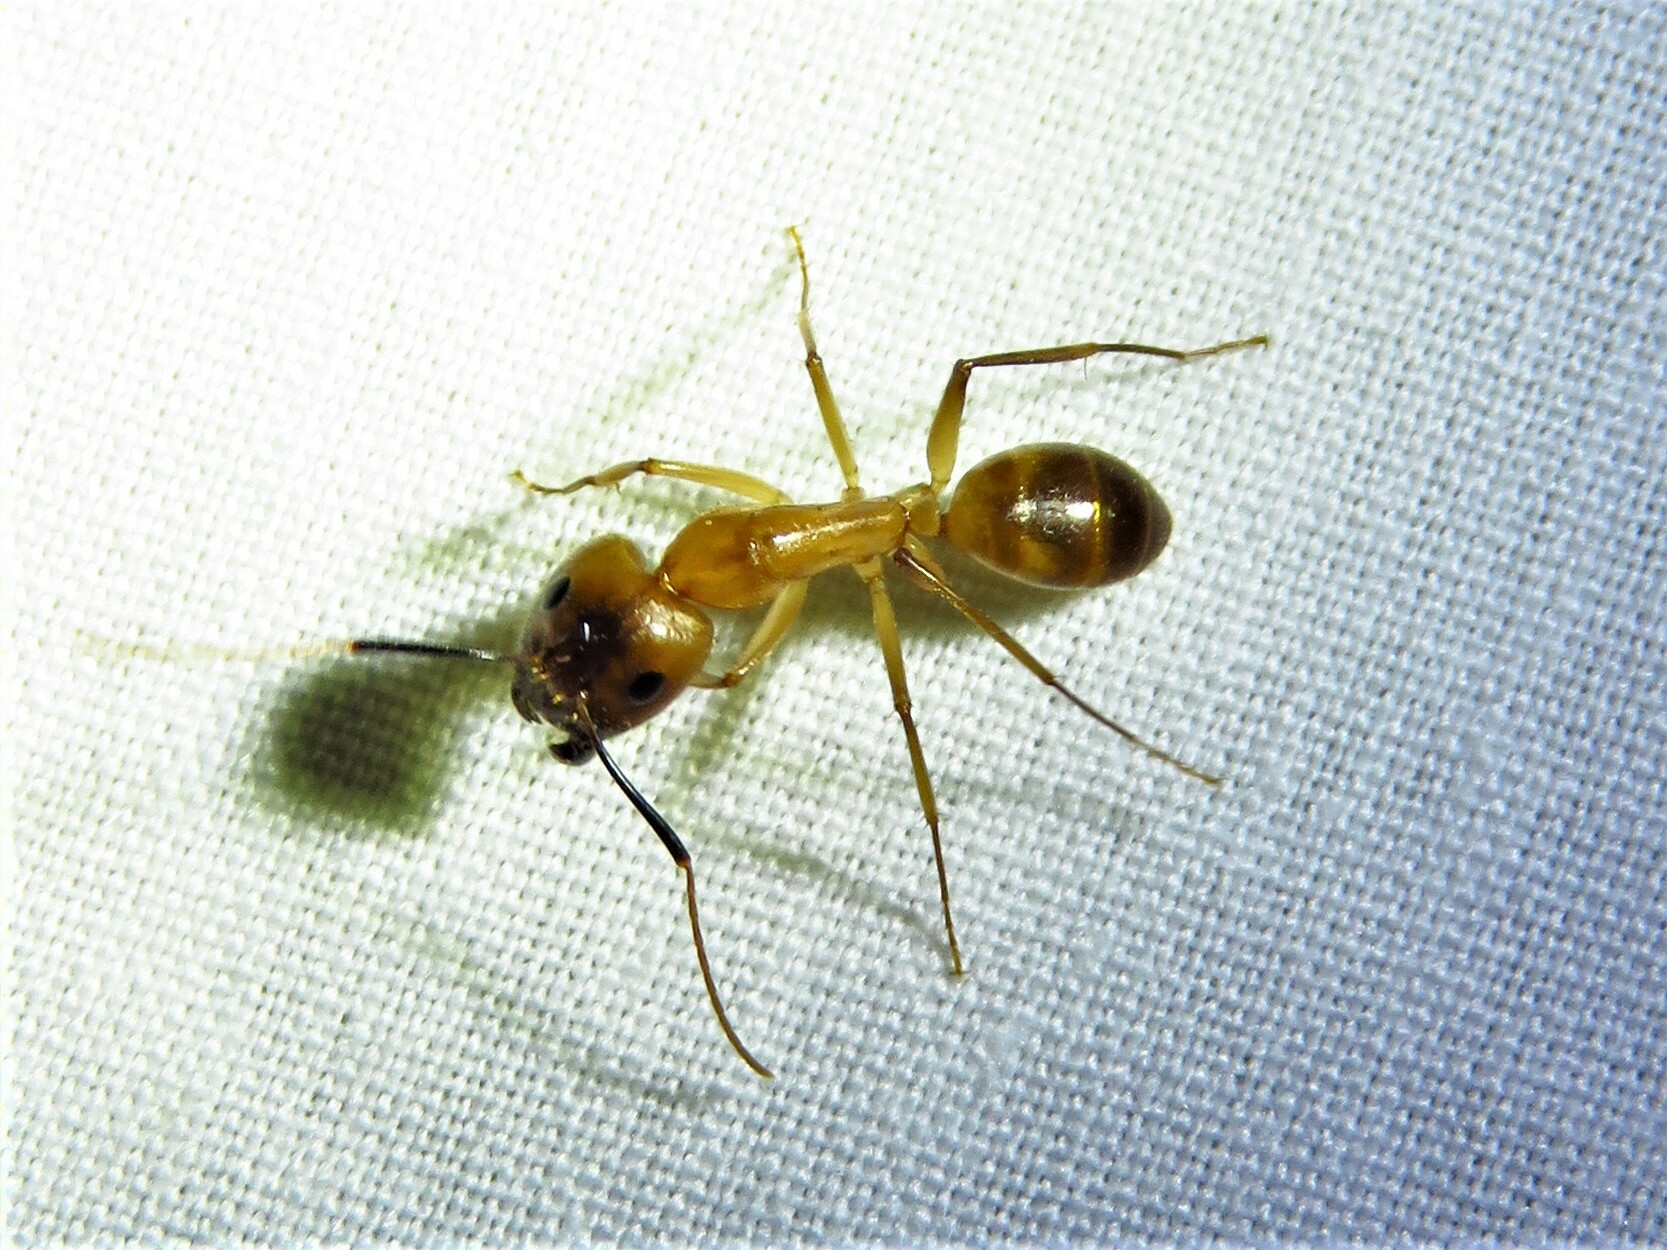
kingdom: Animalia
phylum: Arthropoda
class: Insecta
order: Hymenoptera
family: Formicidae
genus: Camponotus
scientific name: Camponotus festinatus
